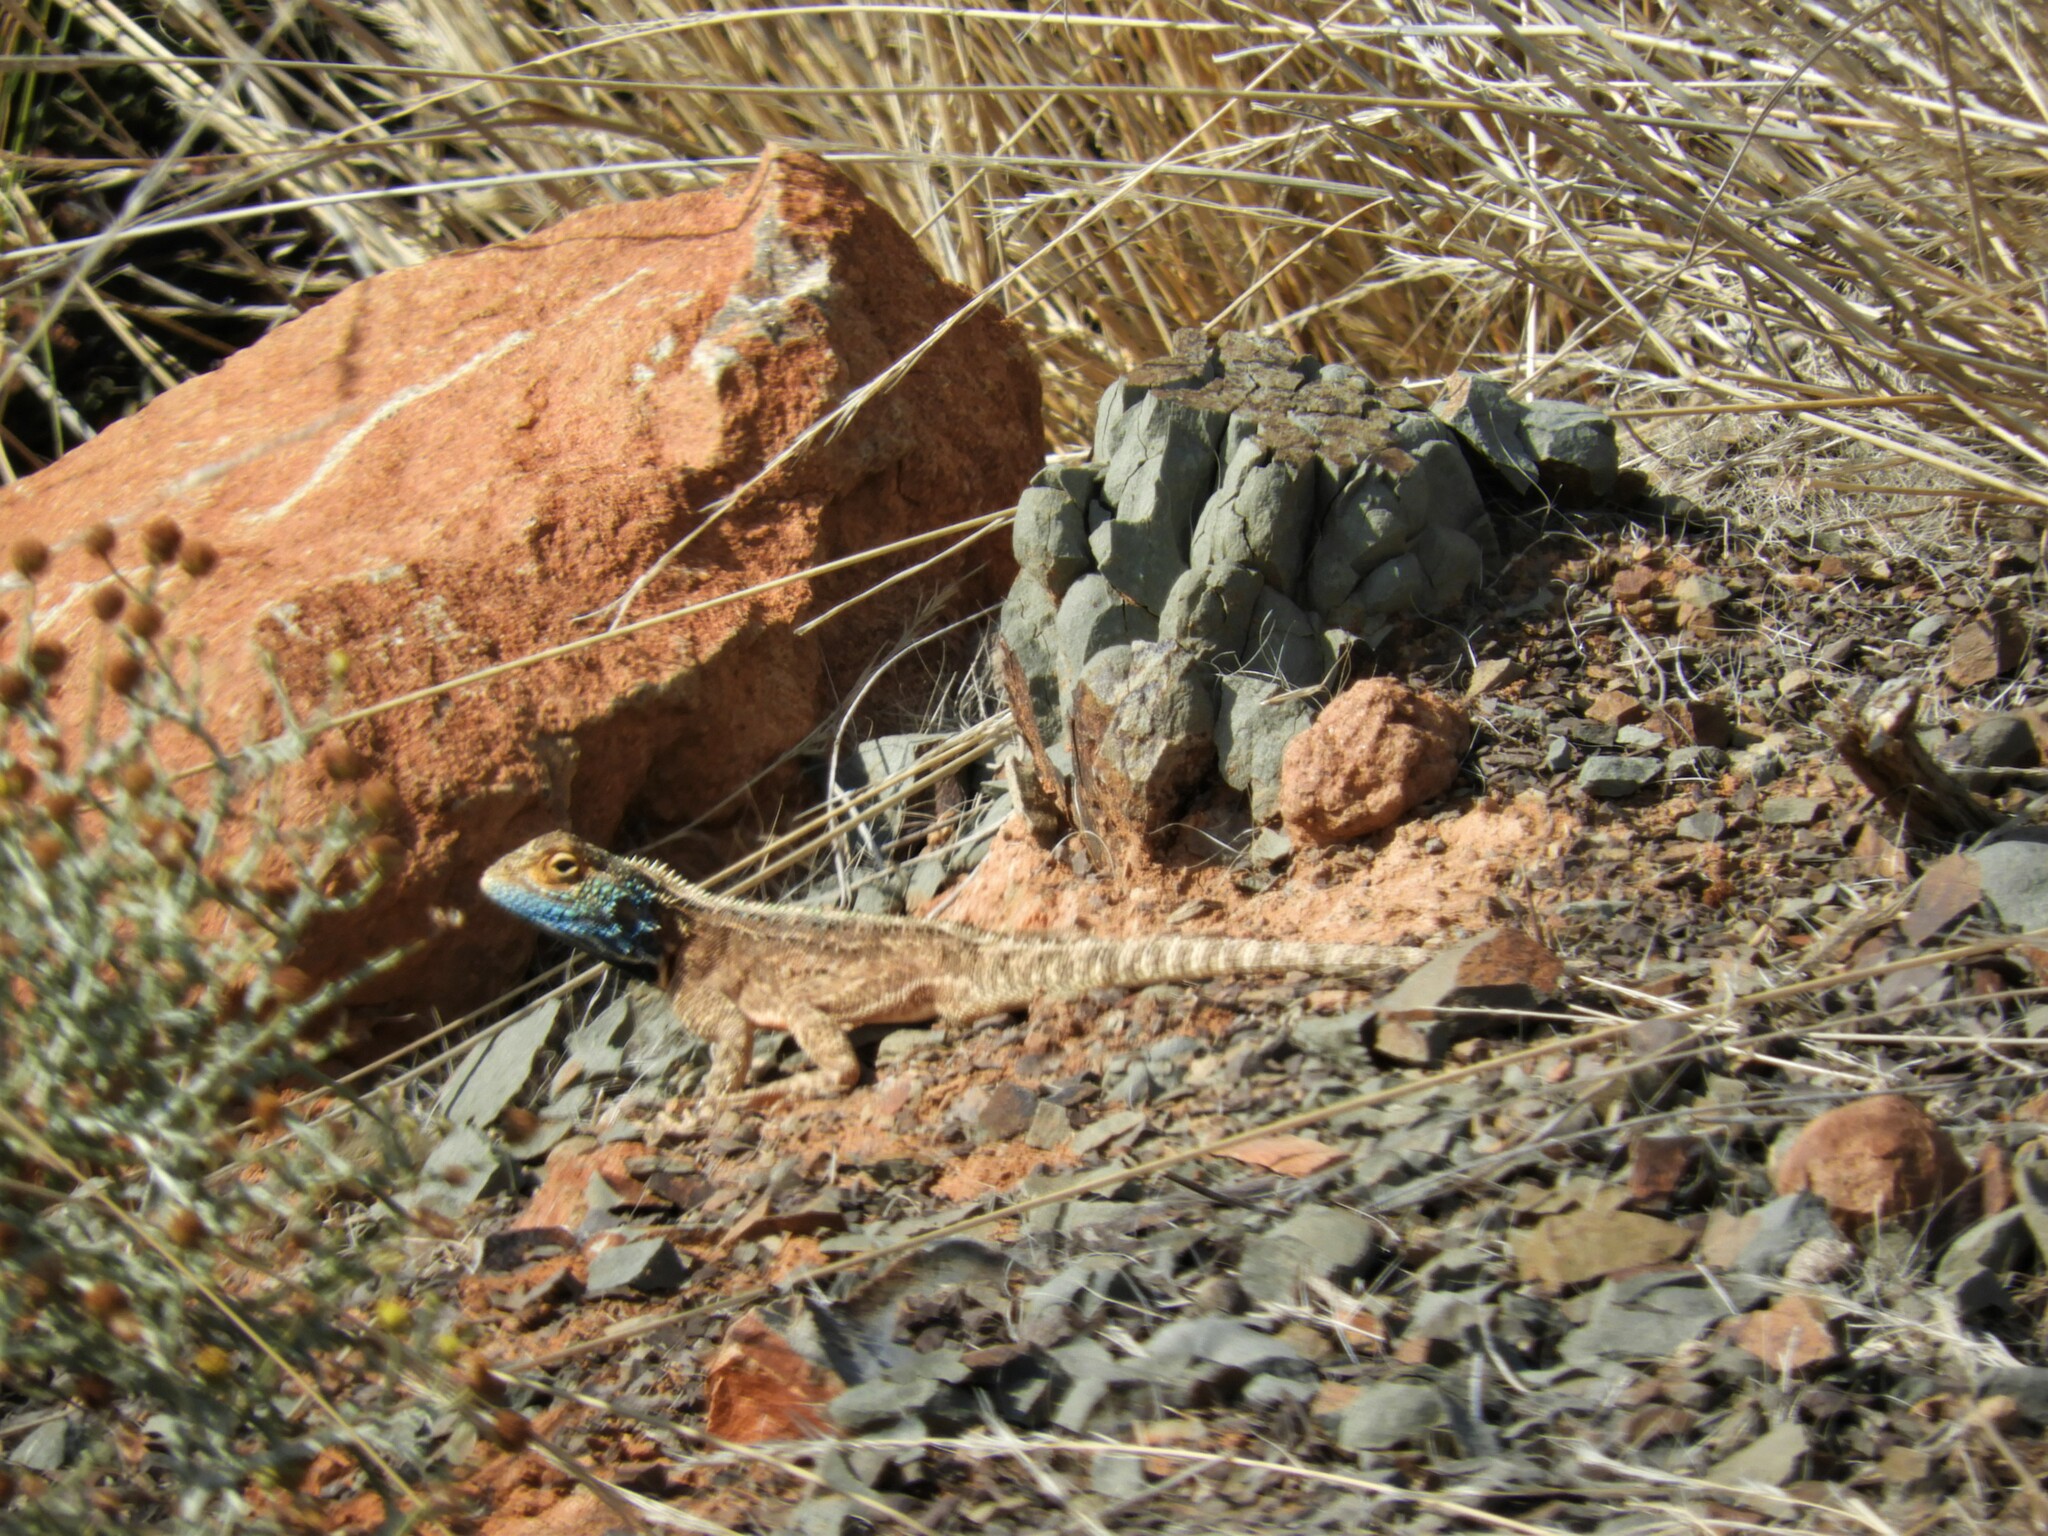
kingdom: Animalia
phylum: Chordata
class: Squamata
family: Agamidae
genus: Agama
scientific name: Agama aculeata
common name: Common ground agama
